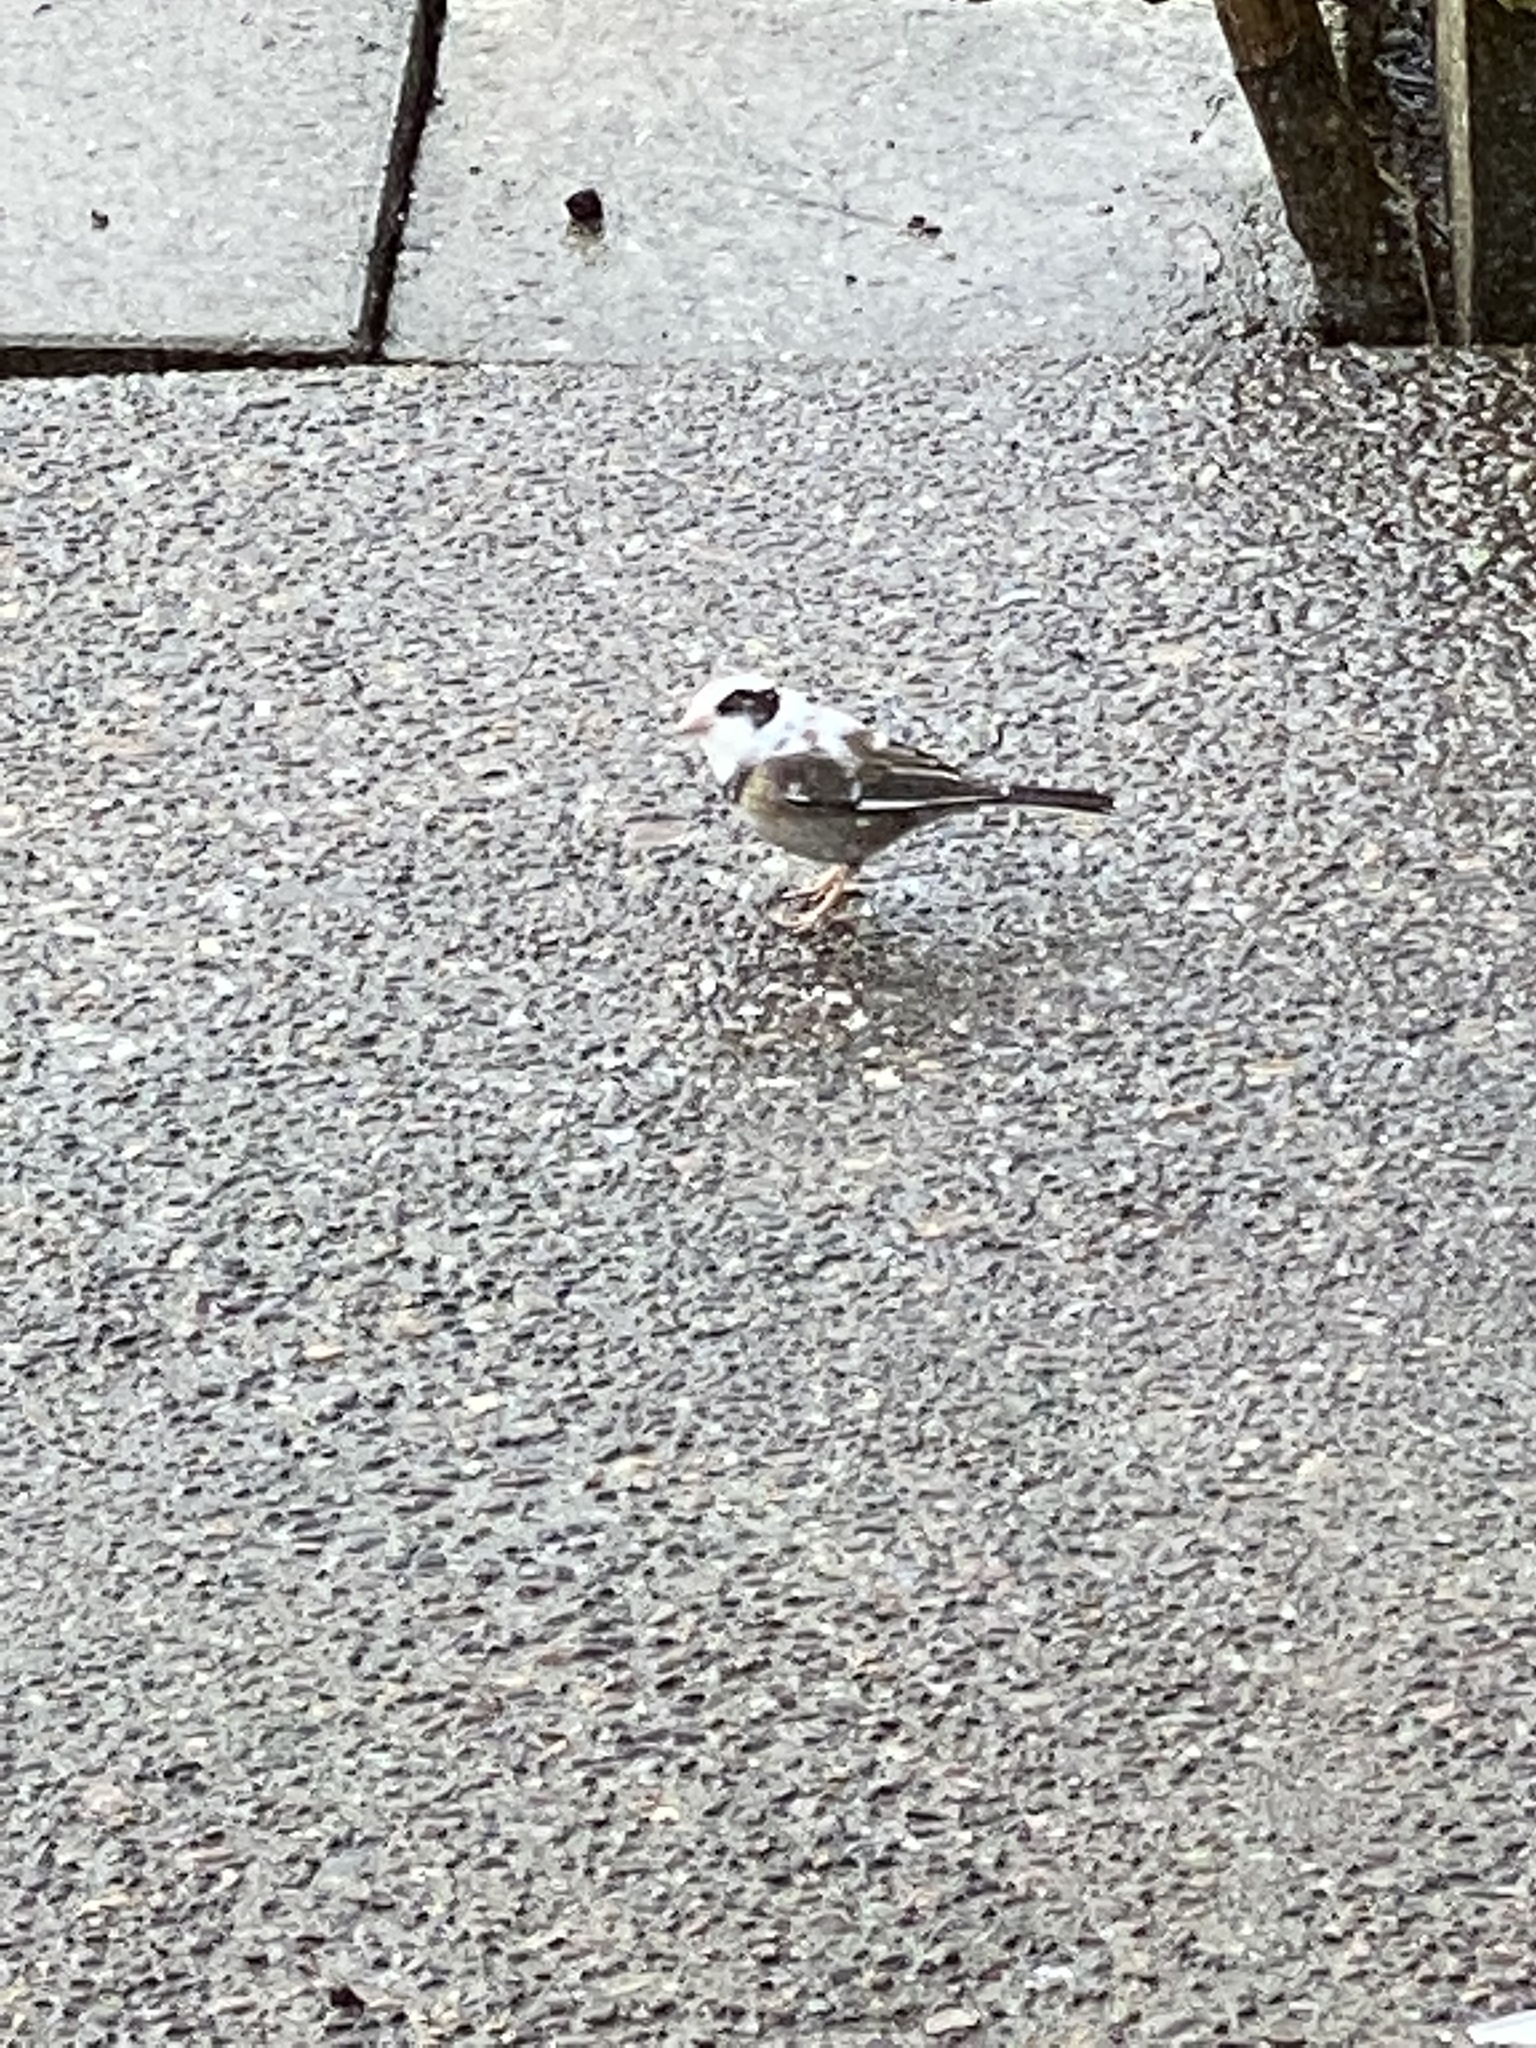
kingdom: Animalia
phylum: Chordata
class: Aves
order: Passeriformes
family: Passerellidae
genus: Junco
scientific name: Junco hyemalis
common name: Dark-eyed junco
